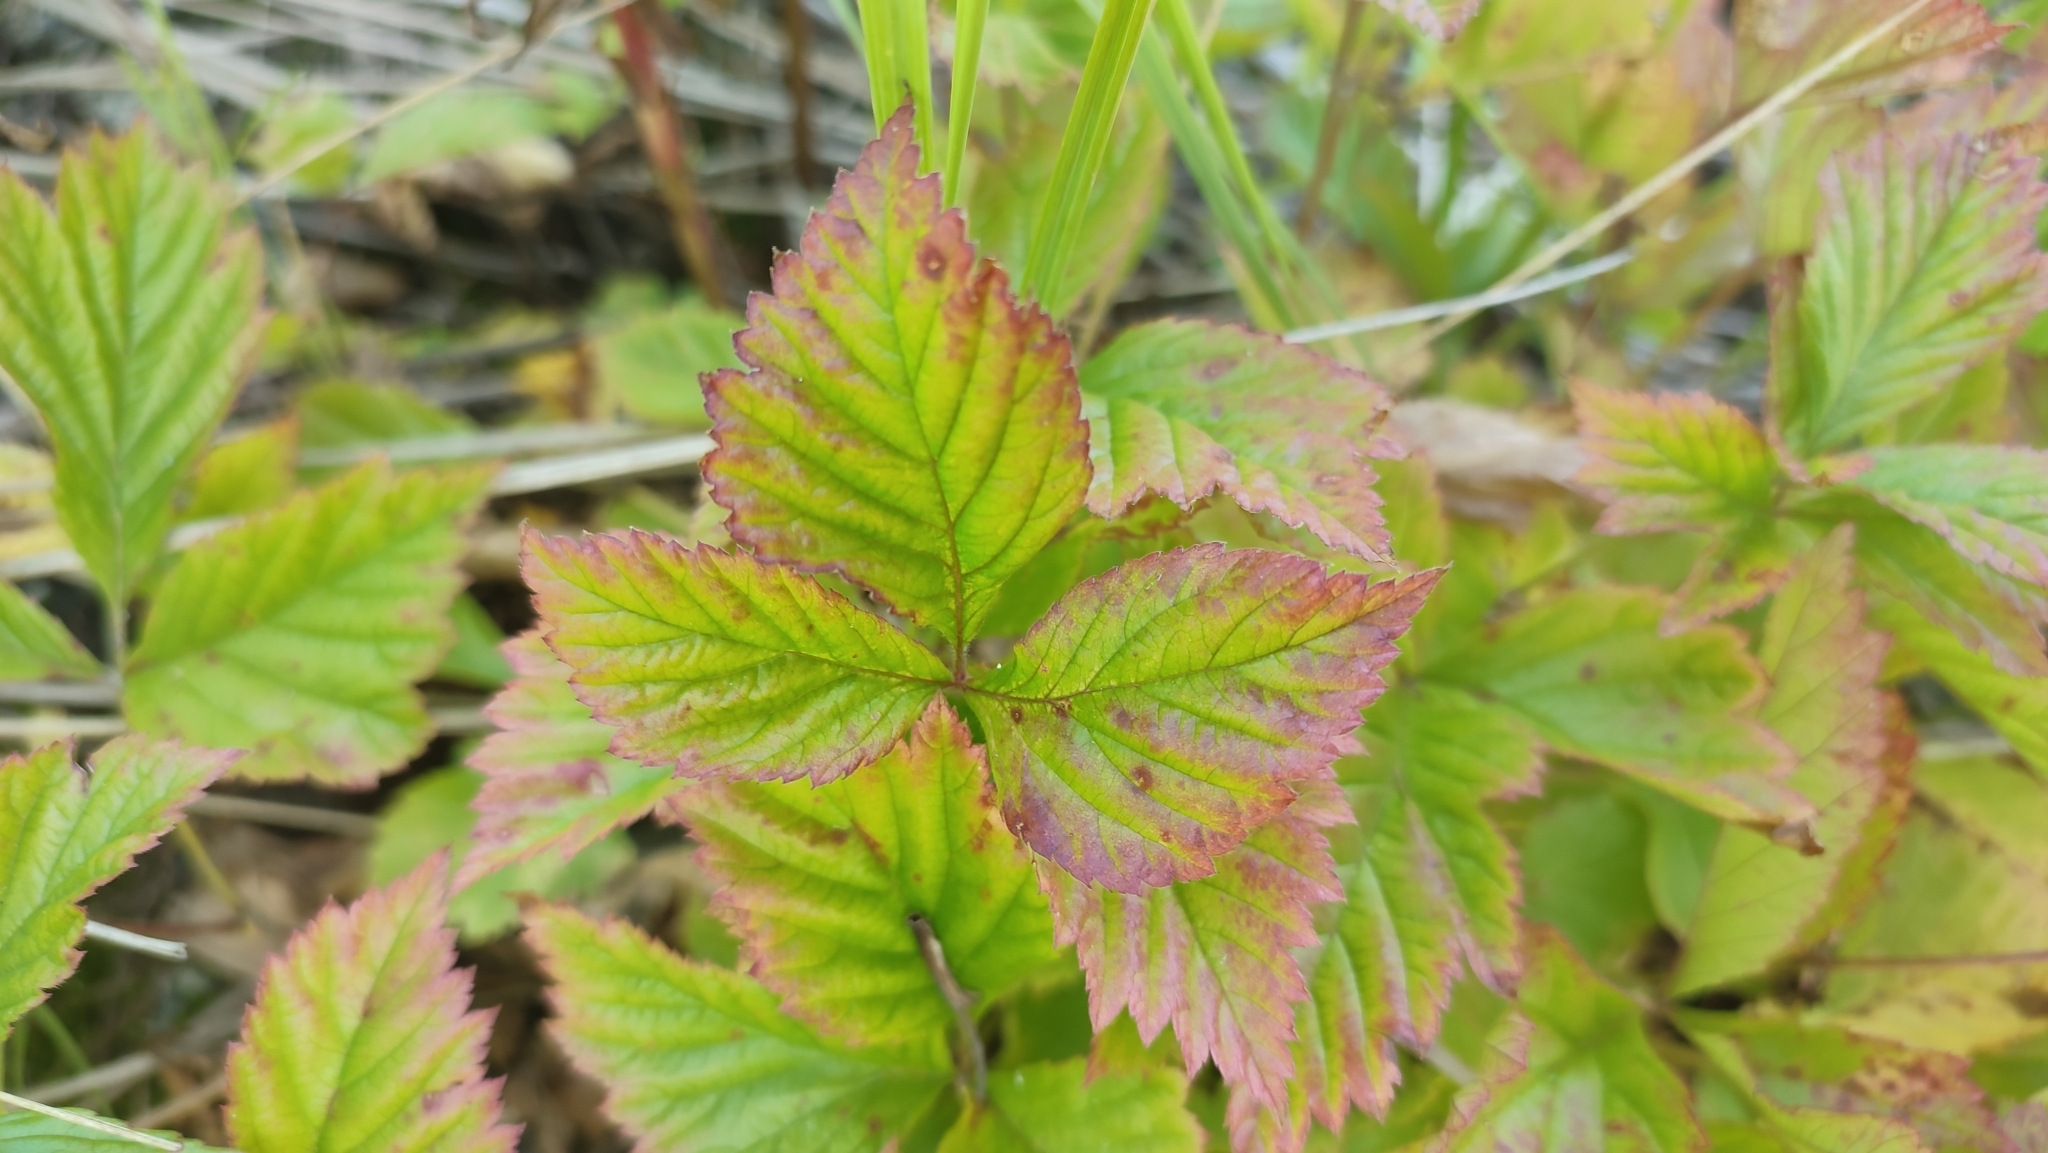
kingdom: Plantae
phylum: Tracheophyta
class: Magnoliopsida
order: Rosales
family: Rosaceae
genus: Rubus
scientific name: Rubus arcticus
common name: Arctic bramble
